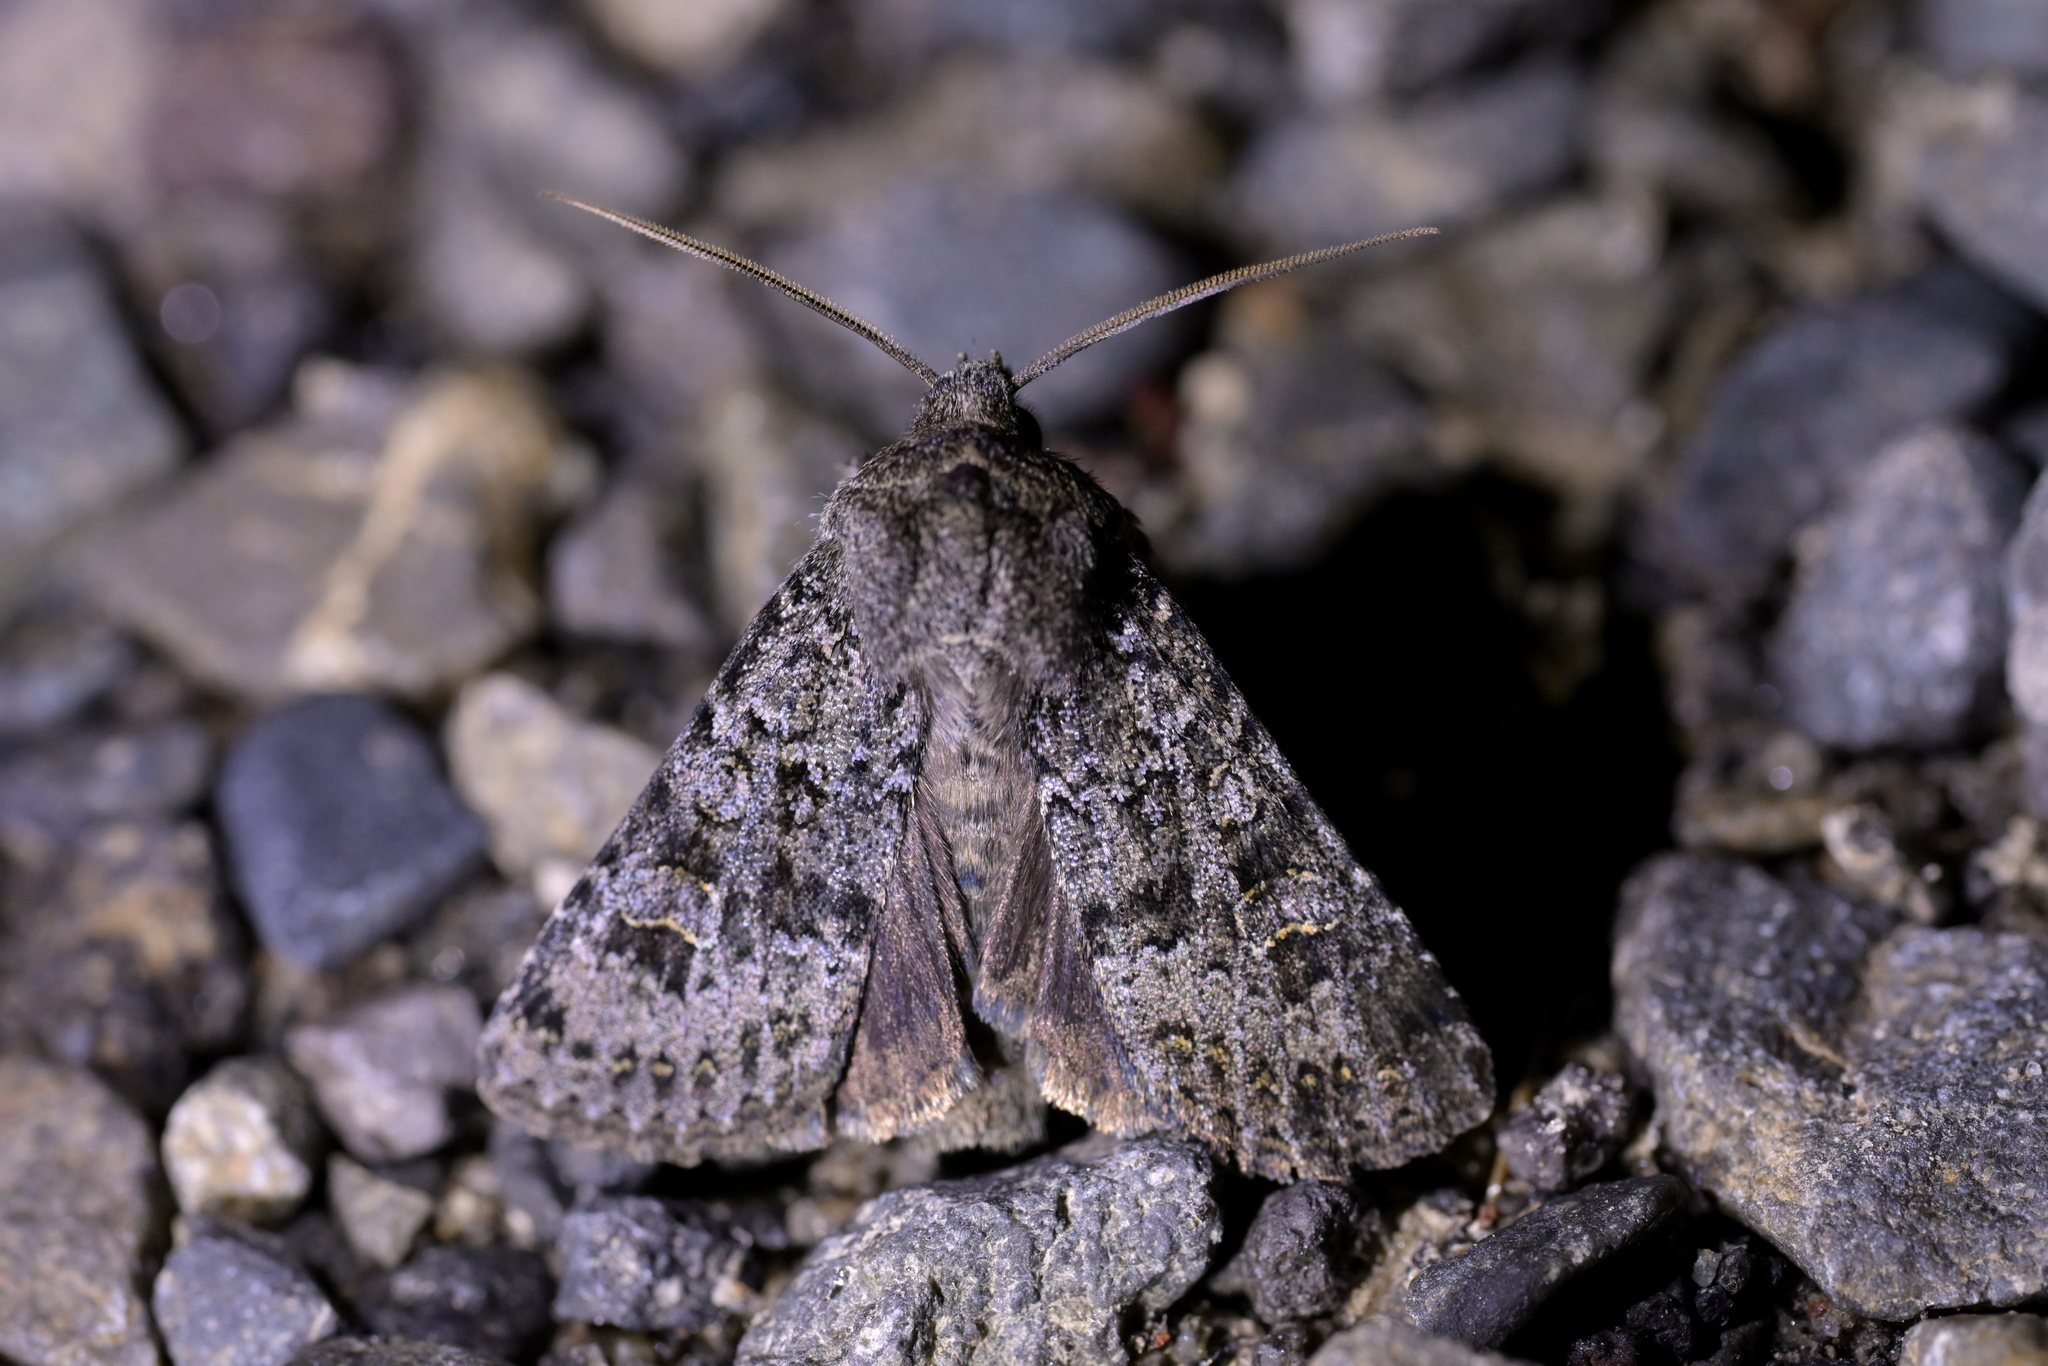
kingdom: Animalia
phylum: Arthropoda
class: Insecta
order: Lepidoptera
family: Noctuidae
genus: Ichneutica
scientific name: Ichneutica
